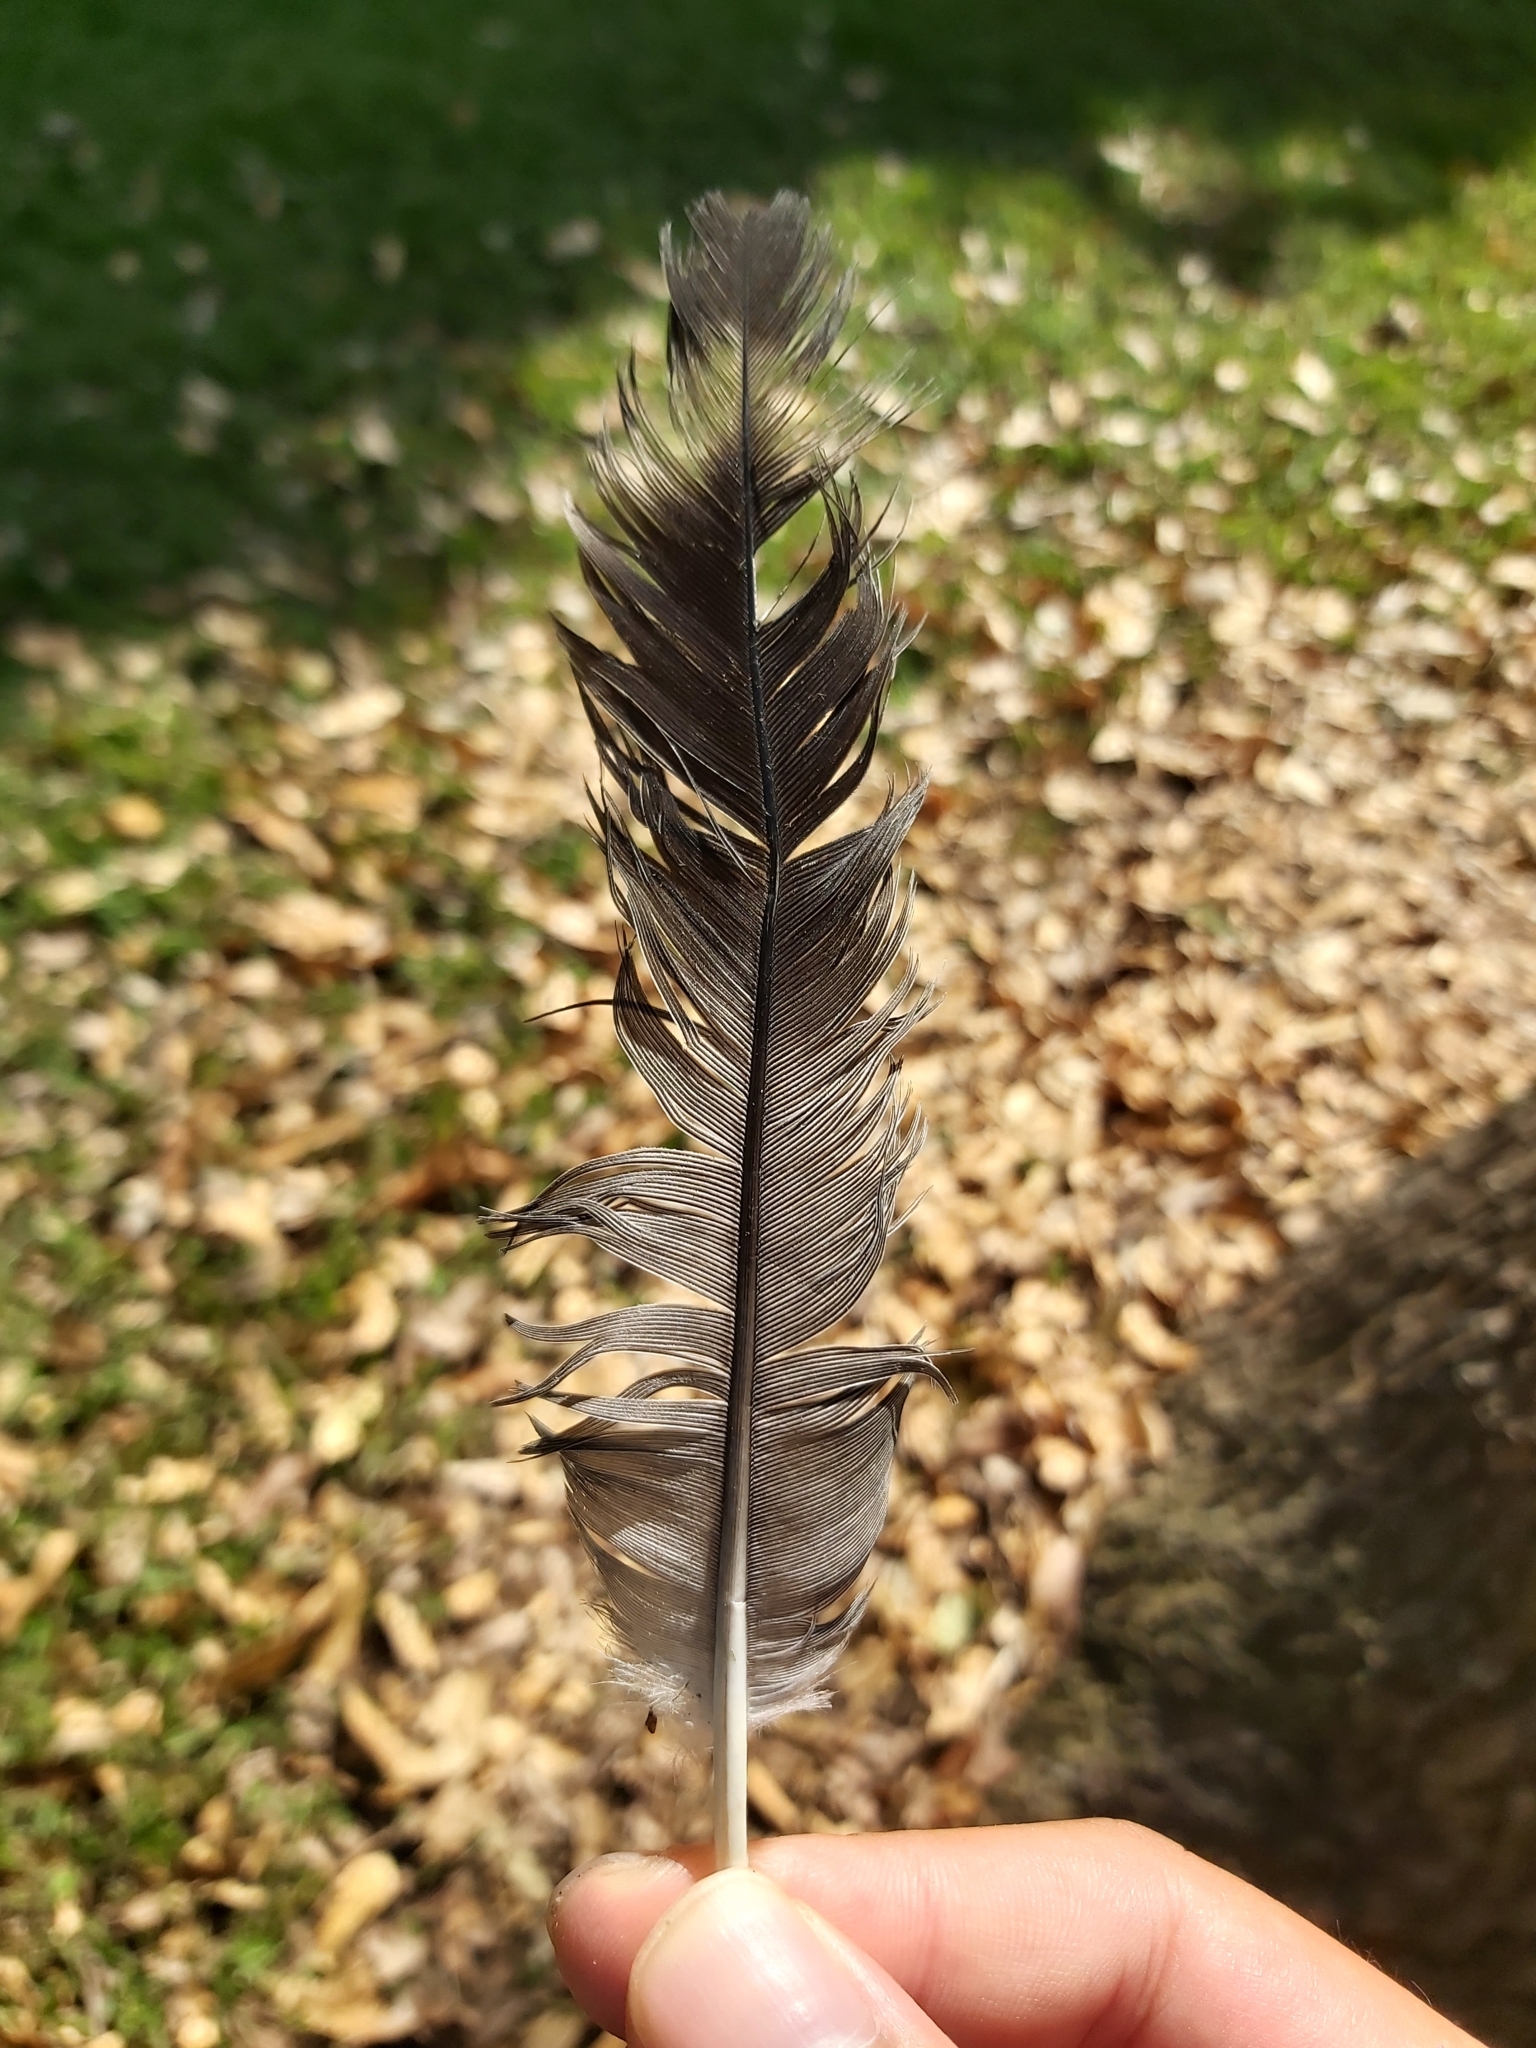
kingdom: Animalia
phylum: Chordata
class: Aves
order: Columbiformes
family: Columbidae
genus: Lopholaimus
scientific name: Lopholaimus antarcticus
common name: Topknot pigeon
